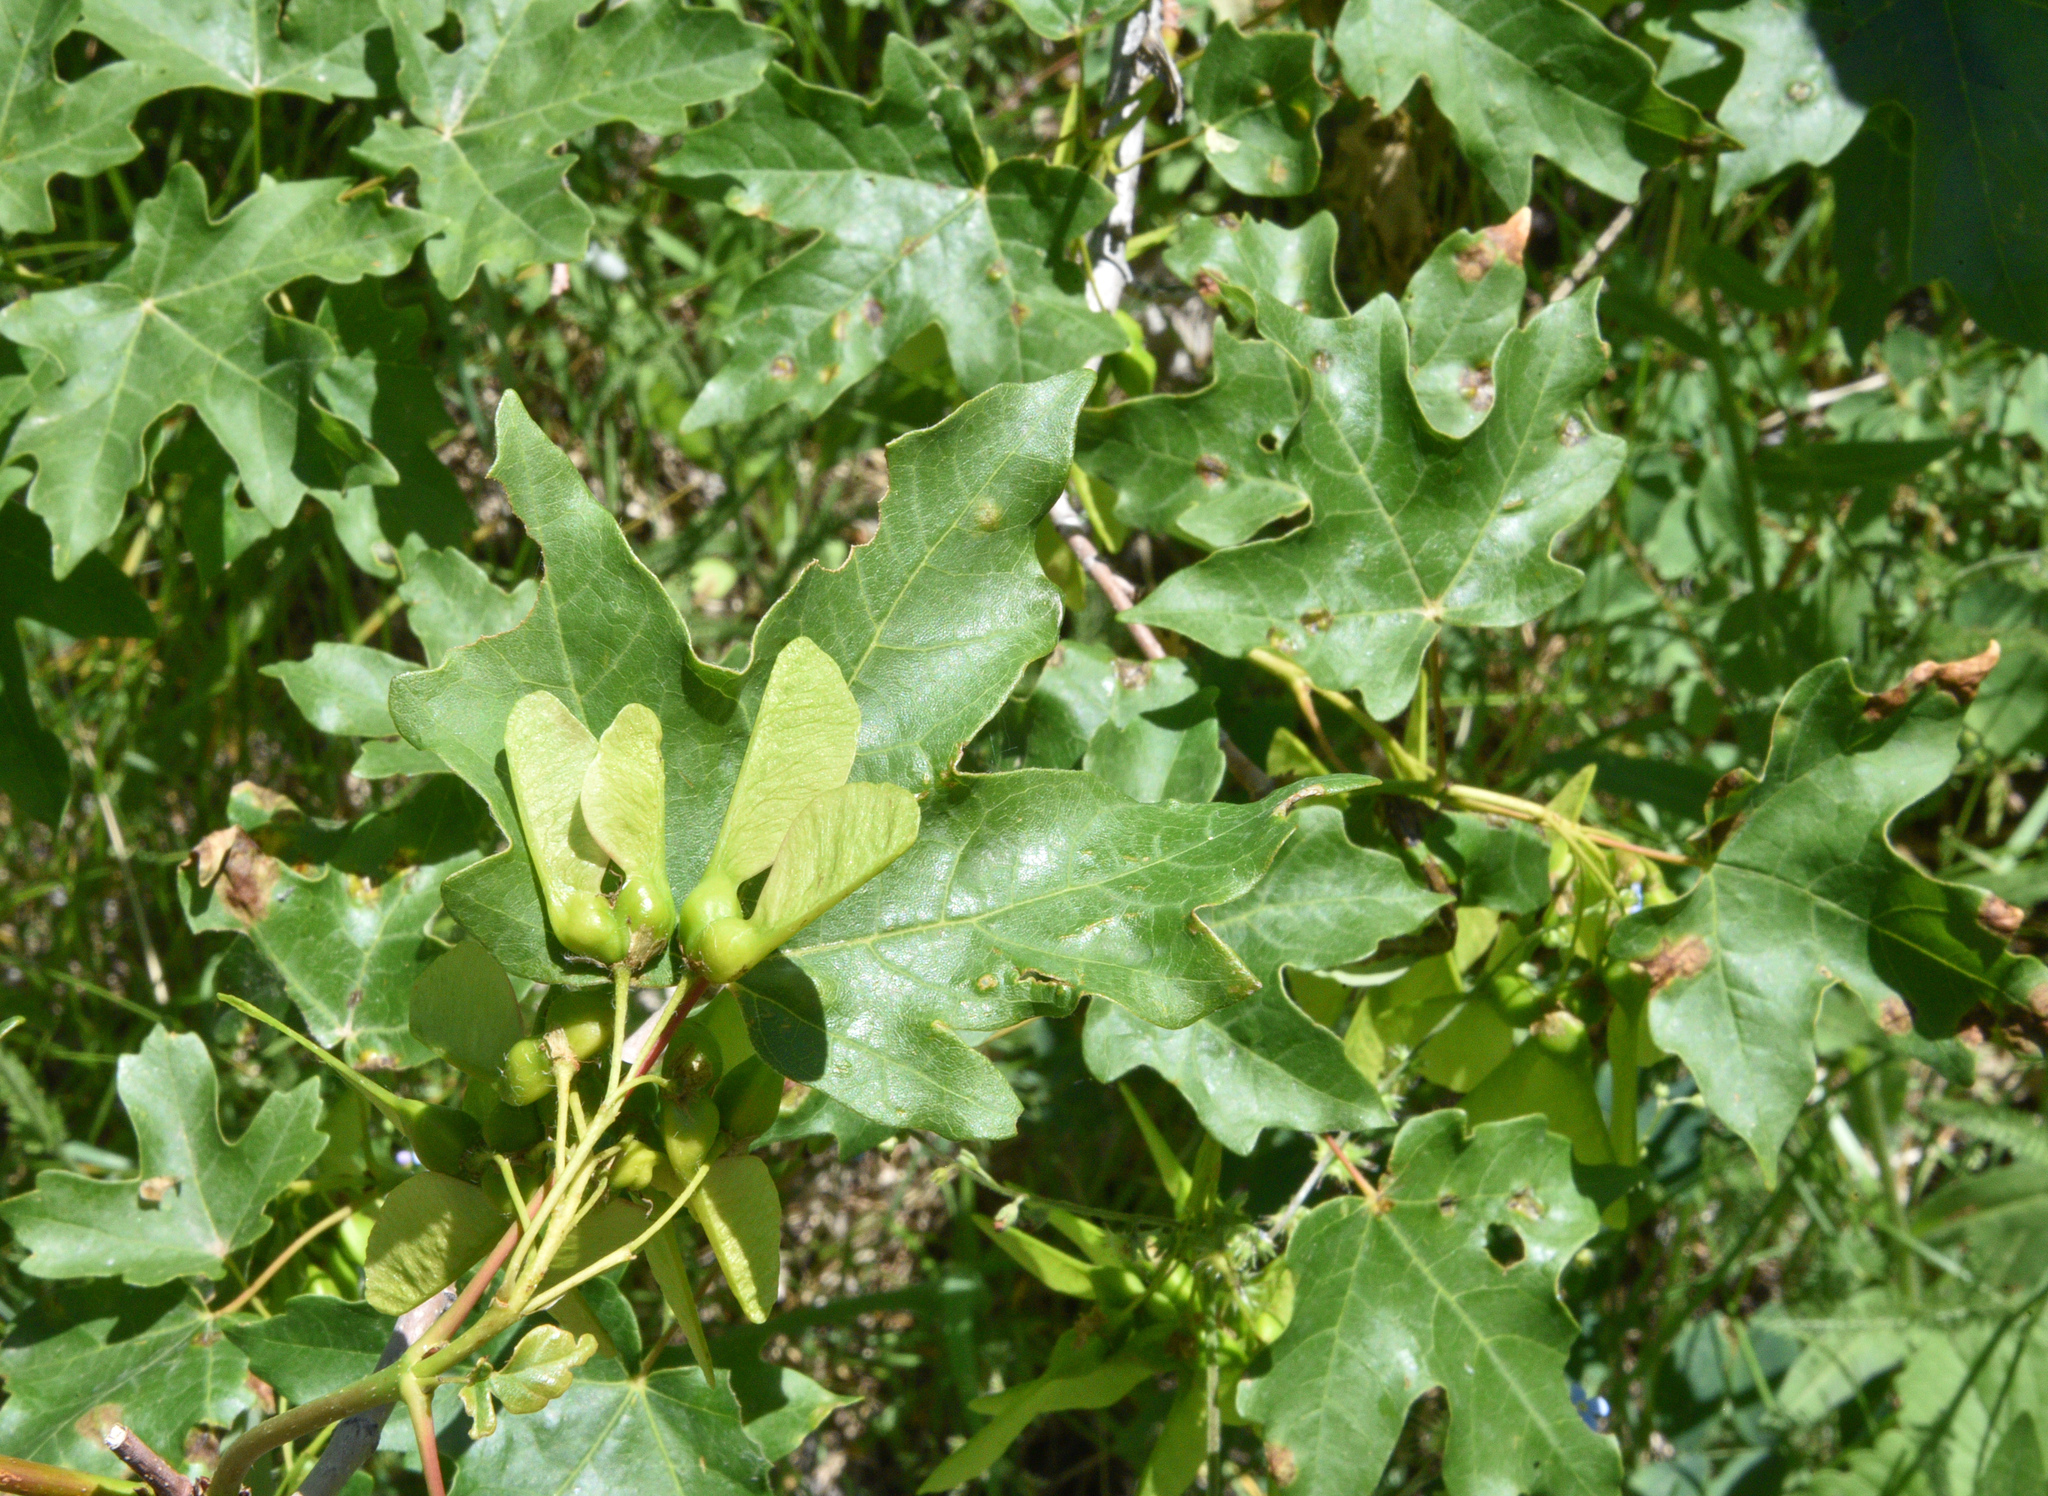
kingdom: Plantae
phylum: Tracheophyta
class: Magnoliopsida
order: Sapindales
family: Sapindaceae
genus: Acer
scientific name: Acer grandidentatum
